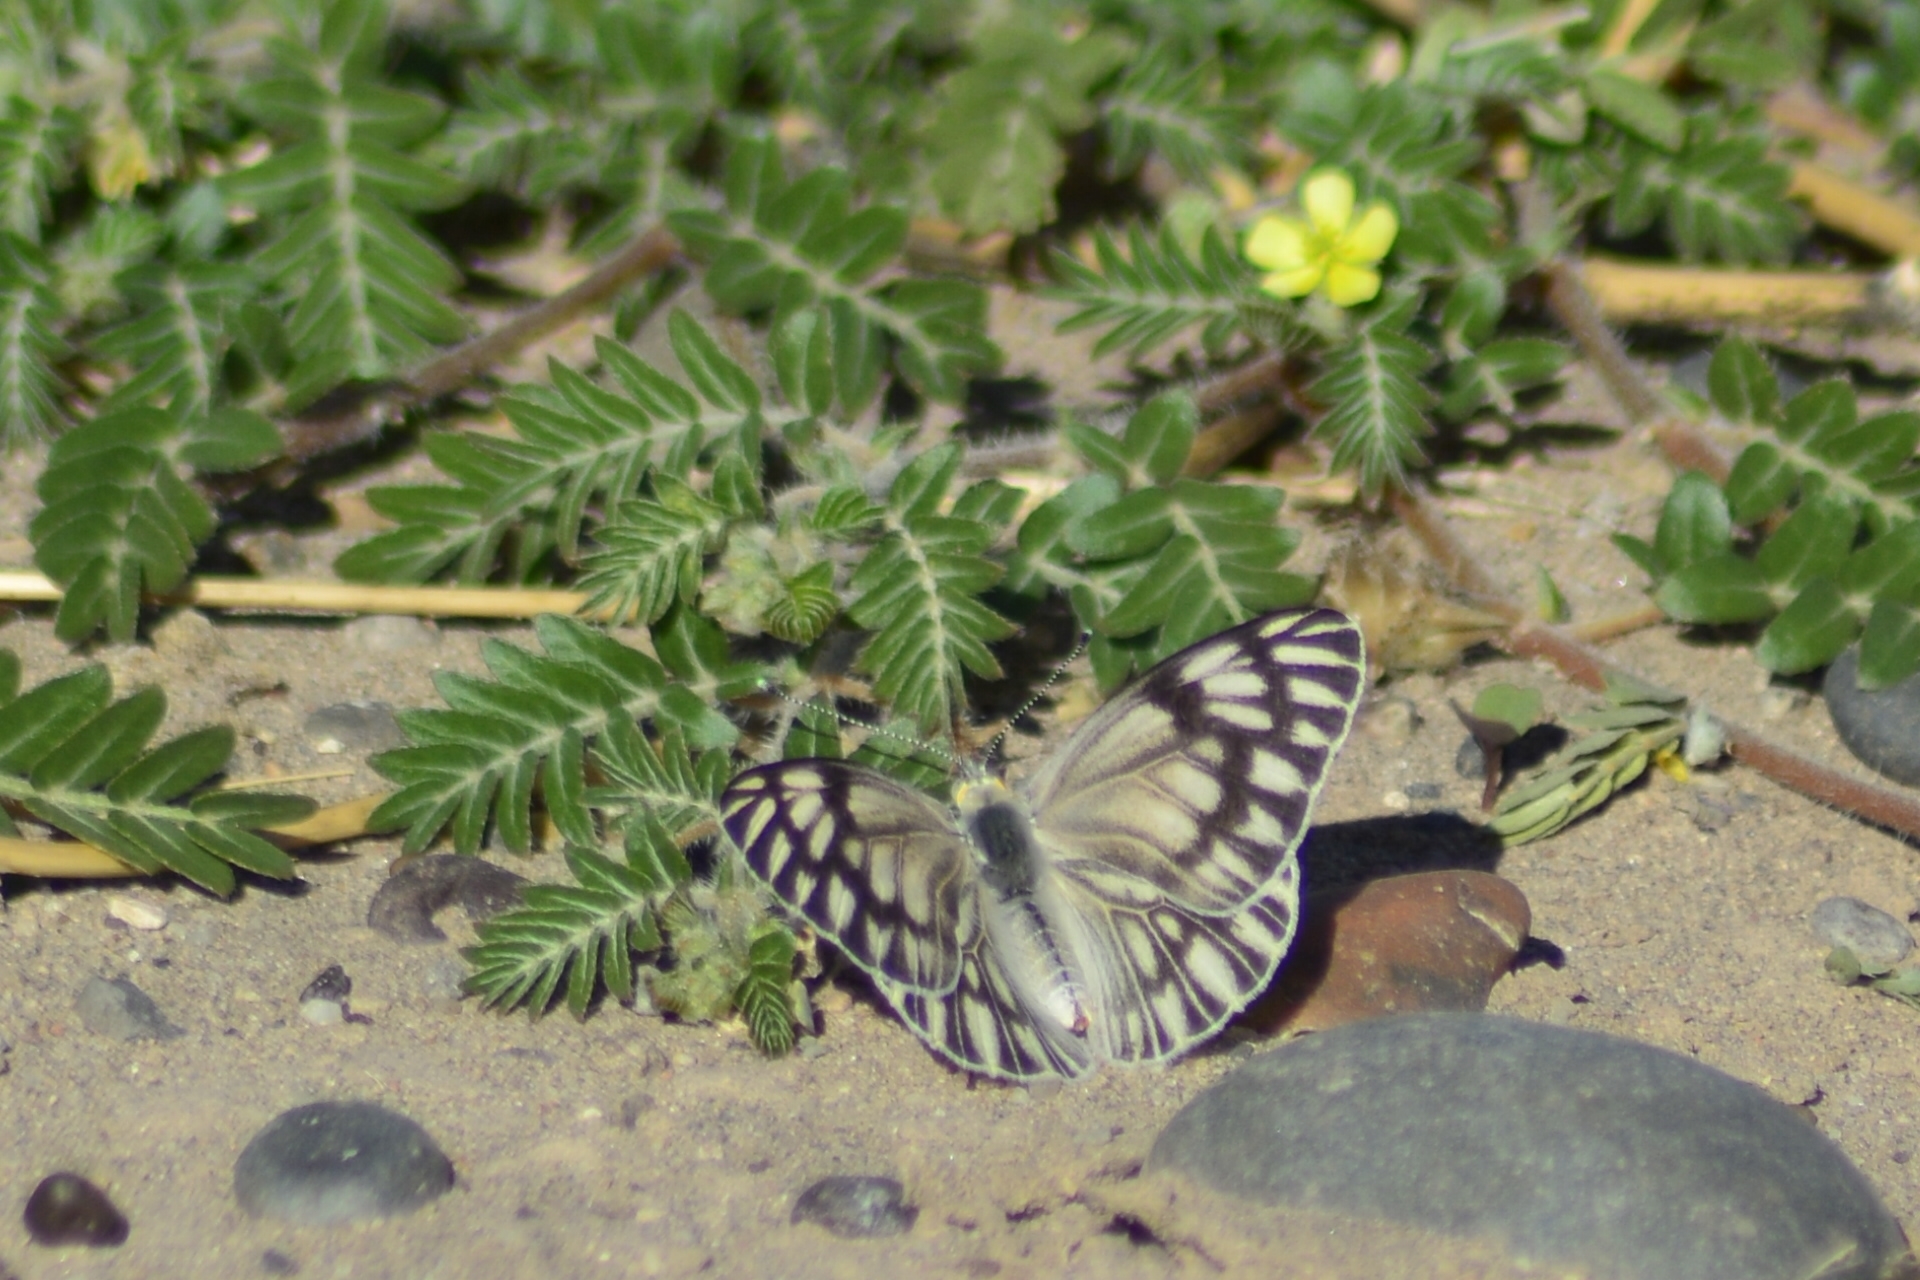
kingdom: Animalia
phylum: Arthropoda
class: Insecta
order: Lepidoptera
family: Pieridae
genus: Tatochila
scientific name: Tatochila mercedis
